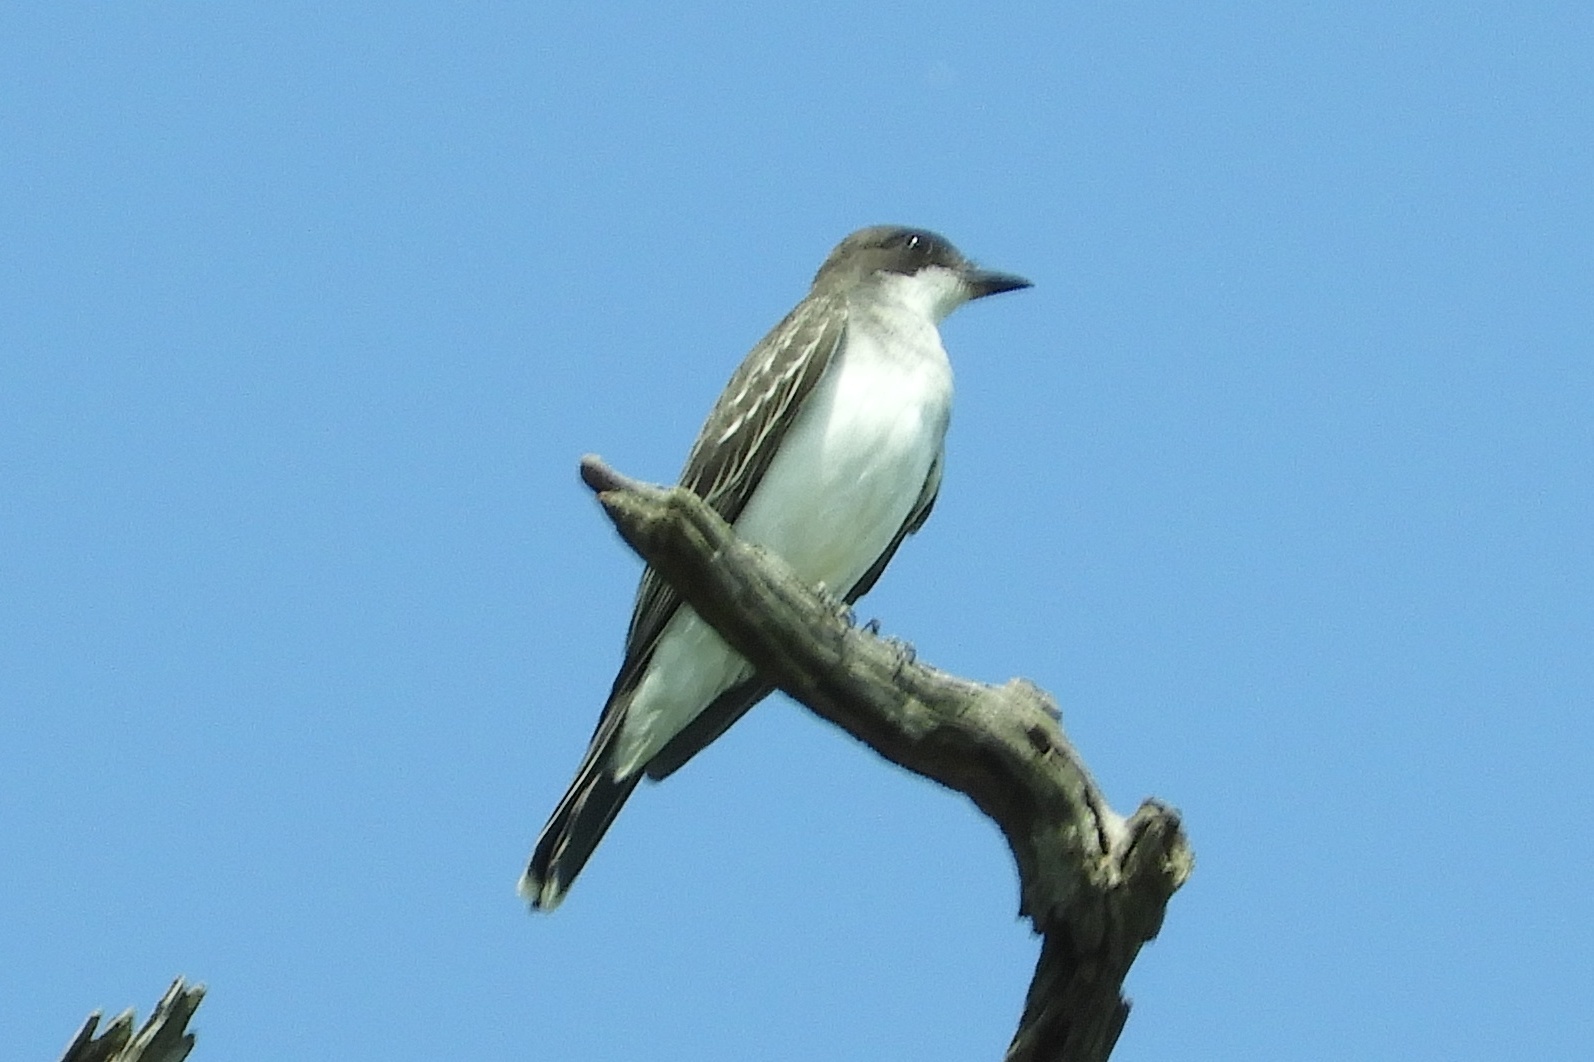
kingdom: Animalia
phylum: Chordata
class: Aves
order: Passeriformes
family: Tyrannidae
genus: Tyrannus
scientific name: Tyrannus tyrannus
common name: Eastern kingbird
